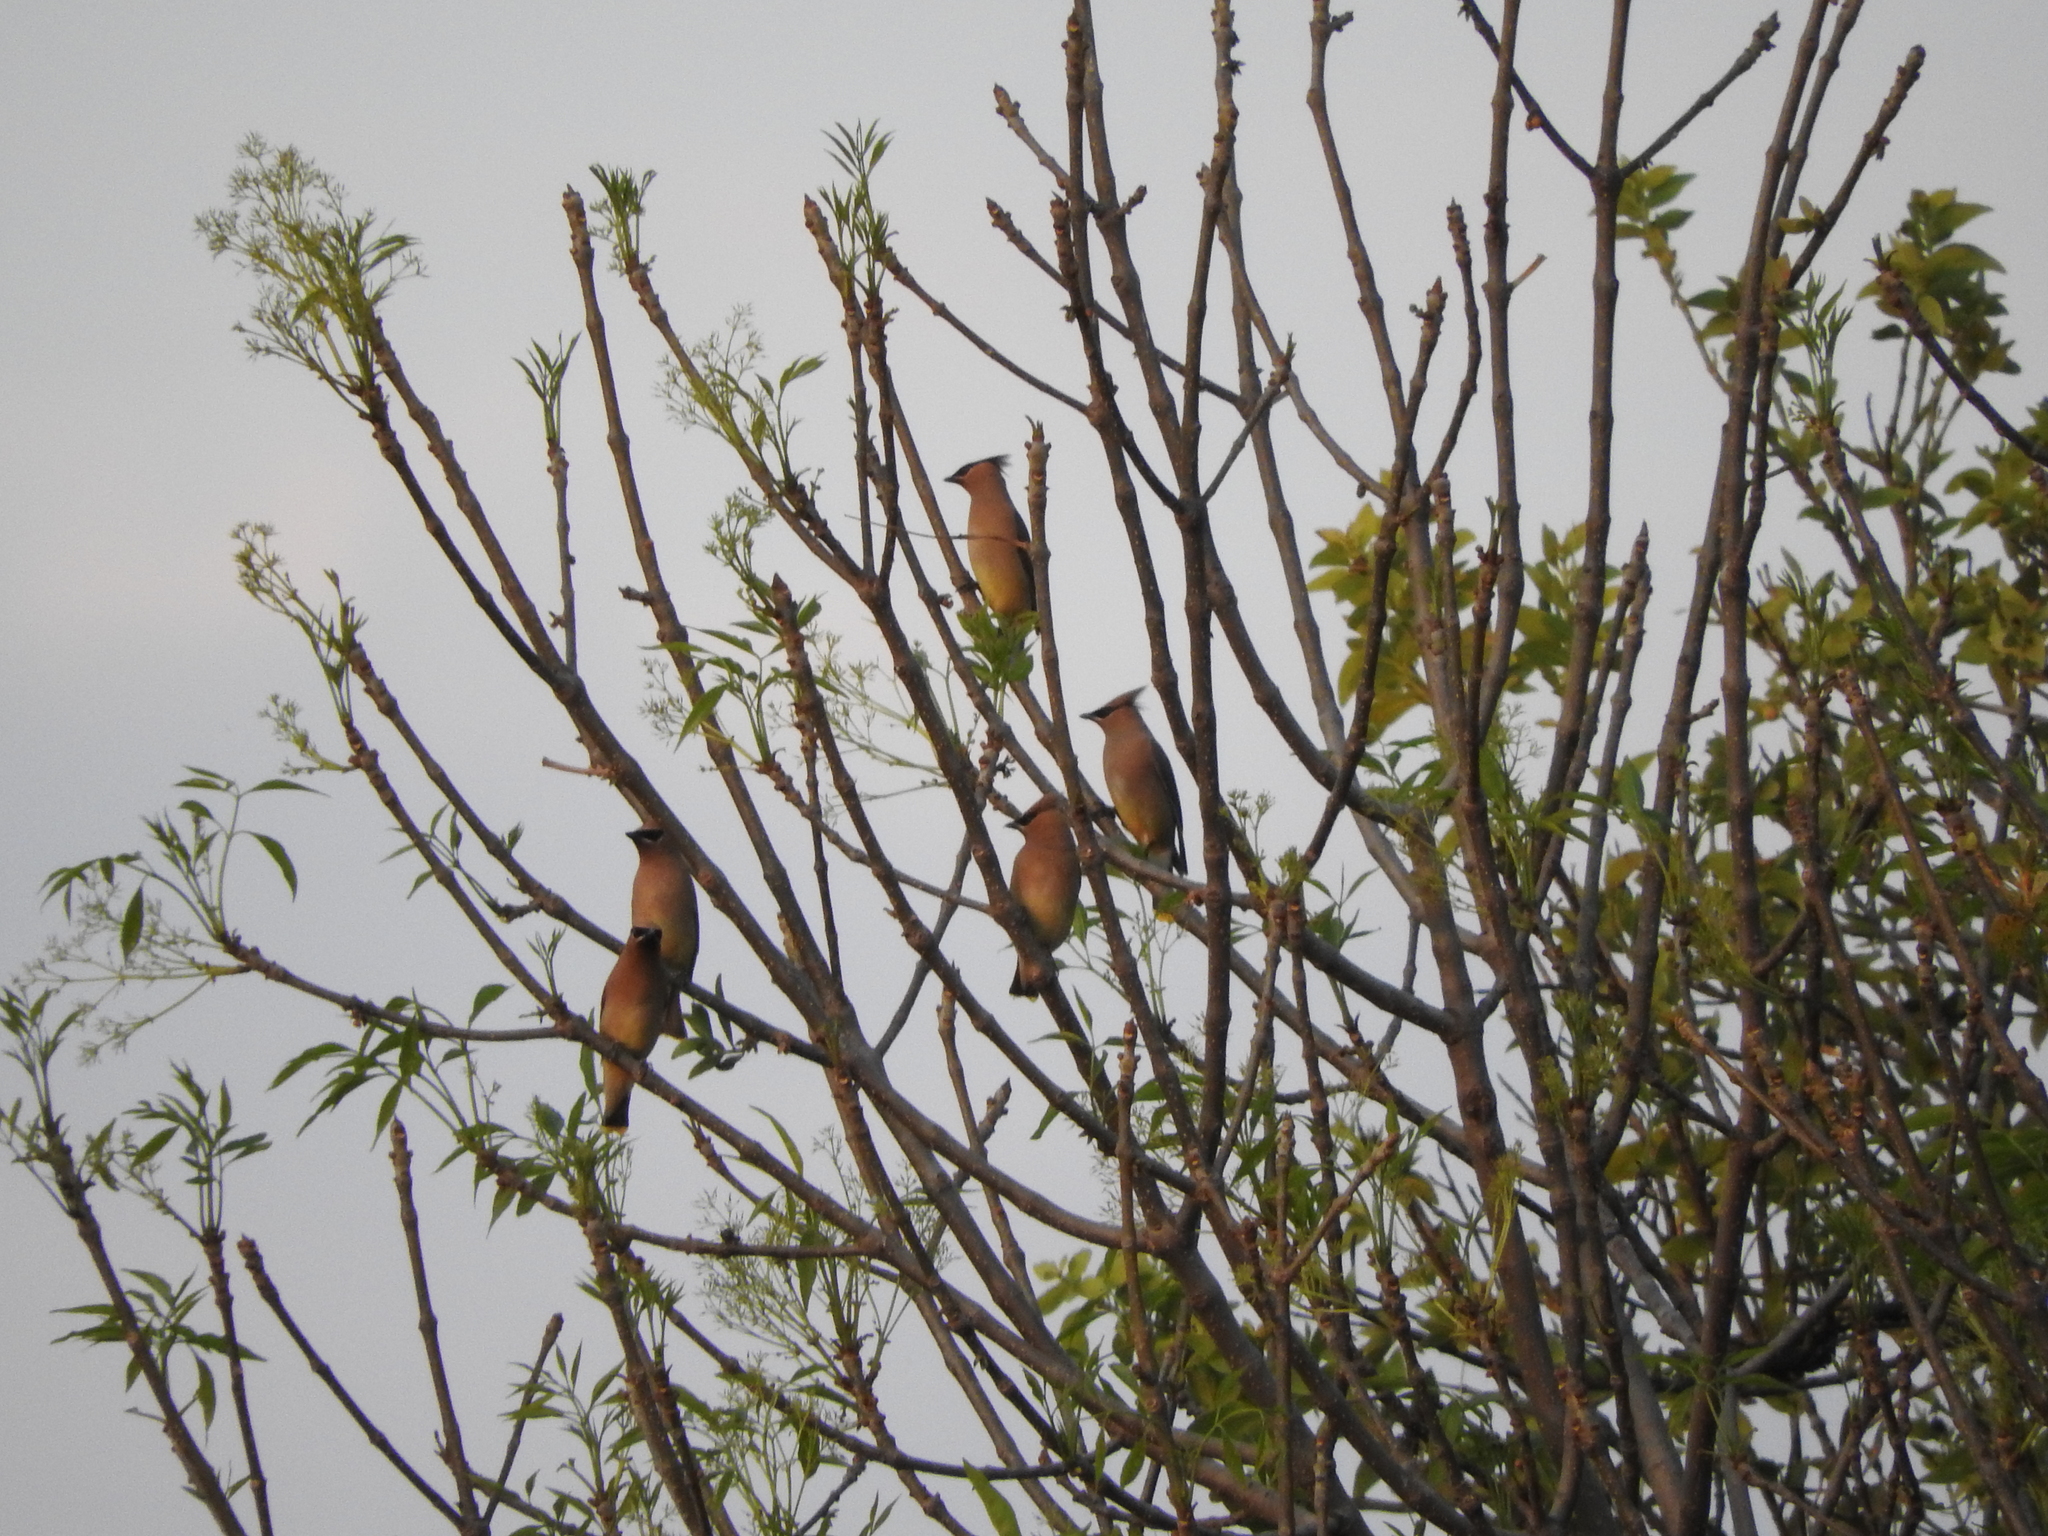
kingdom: Animalia
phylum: Chordata
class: Aves
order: Passeriformes
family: Bombycillidae
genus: Bombycilla
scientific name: Bombycilla cedrorum
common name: Cedar waxwing
